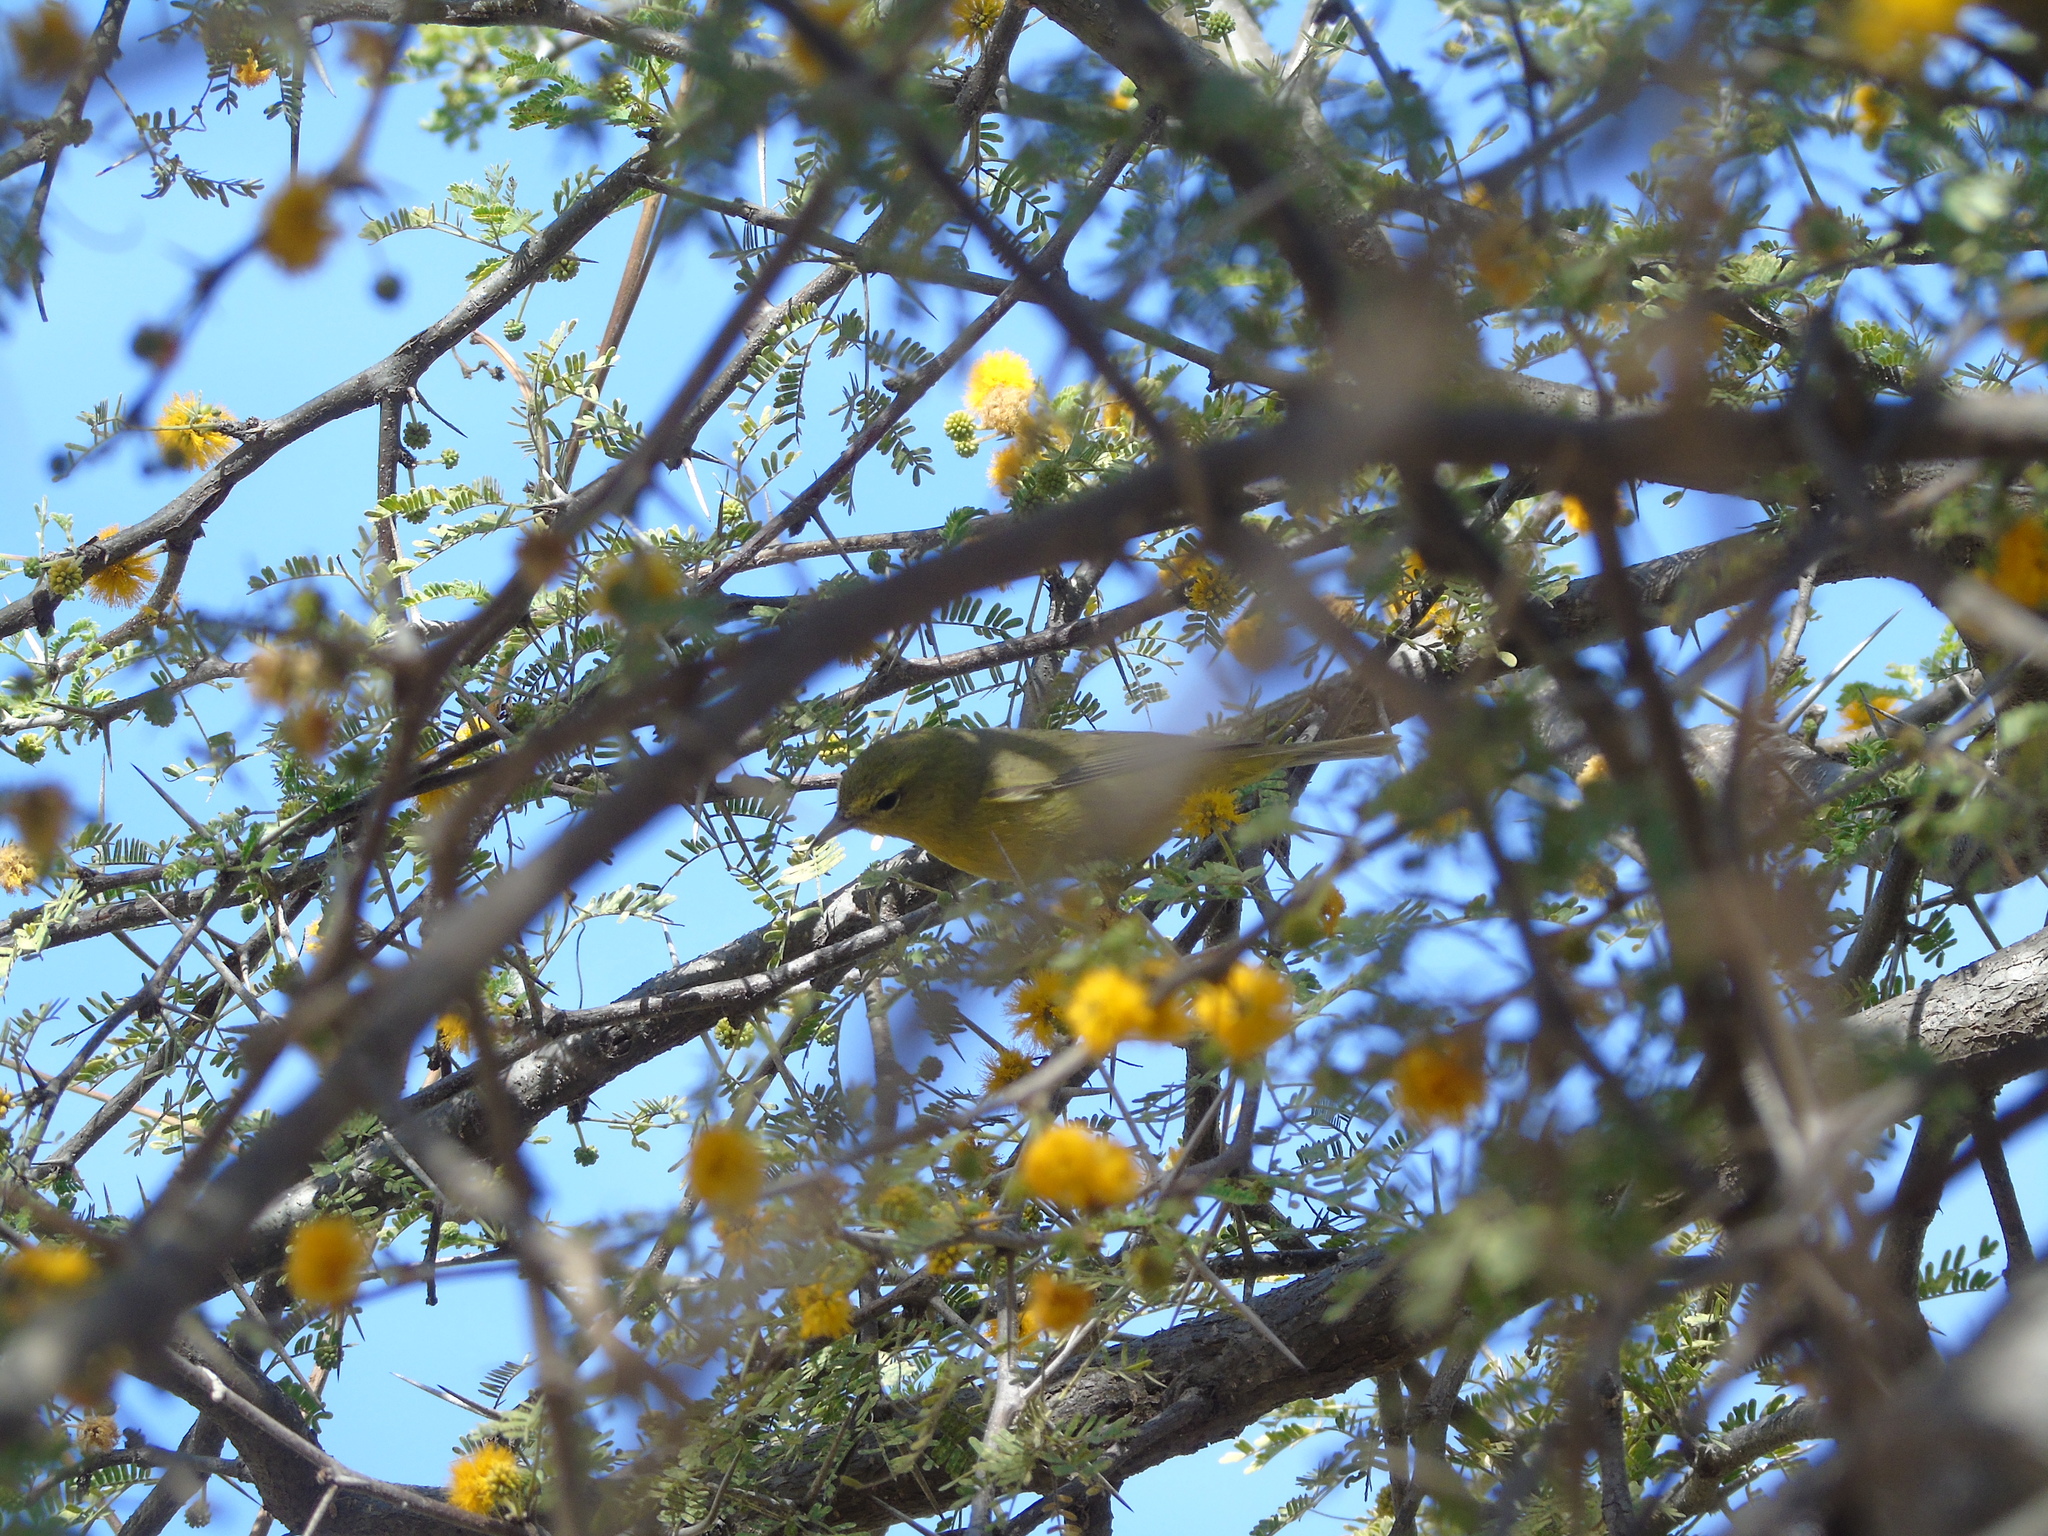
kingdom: Animalia
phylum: Chordata
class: Aves
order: Passeriformes
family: Parulidae
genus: Leiothlypis
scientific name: Leiothlypis celata
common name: Orange-crowned warbler
